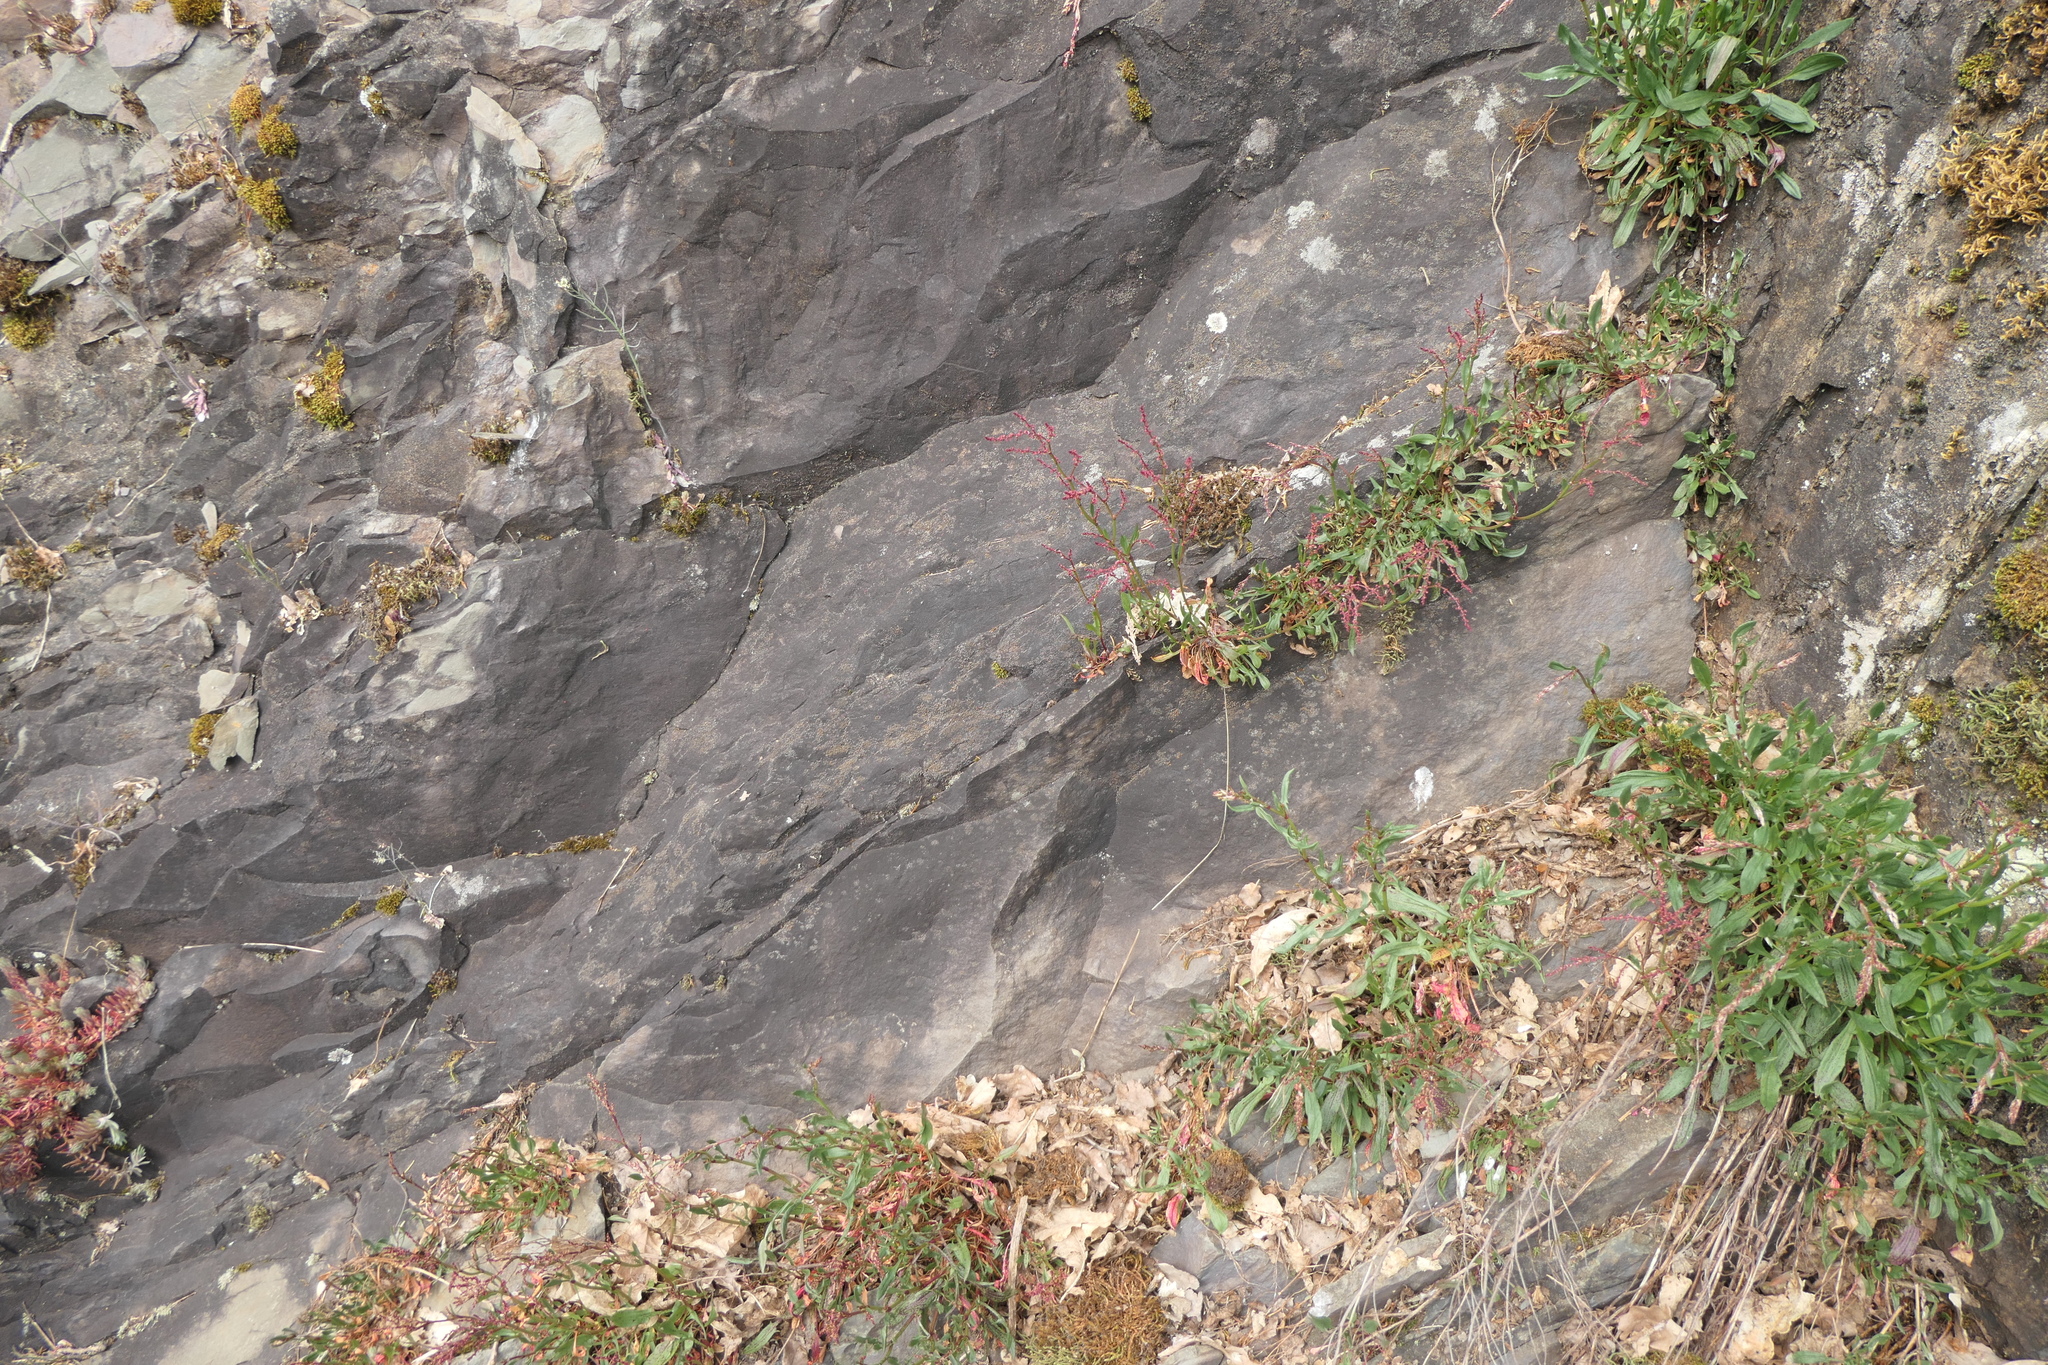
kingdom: Plantae
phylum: Tracheophyta
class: Magnoliopsida
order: Caryophyllales
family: Polygonaceae
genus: Rumex
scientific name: Rumex acetosella
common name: Common sheep sorrel
